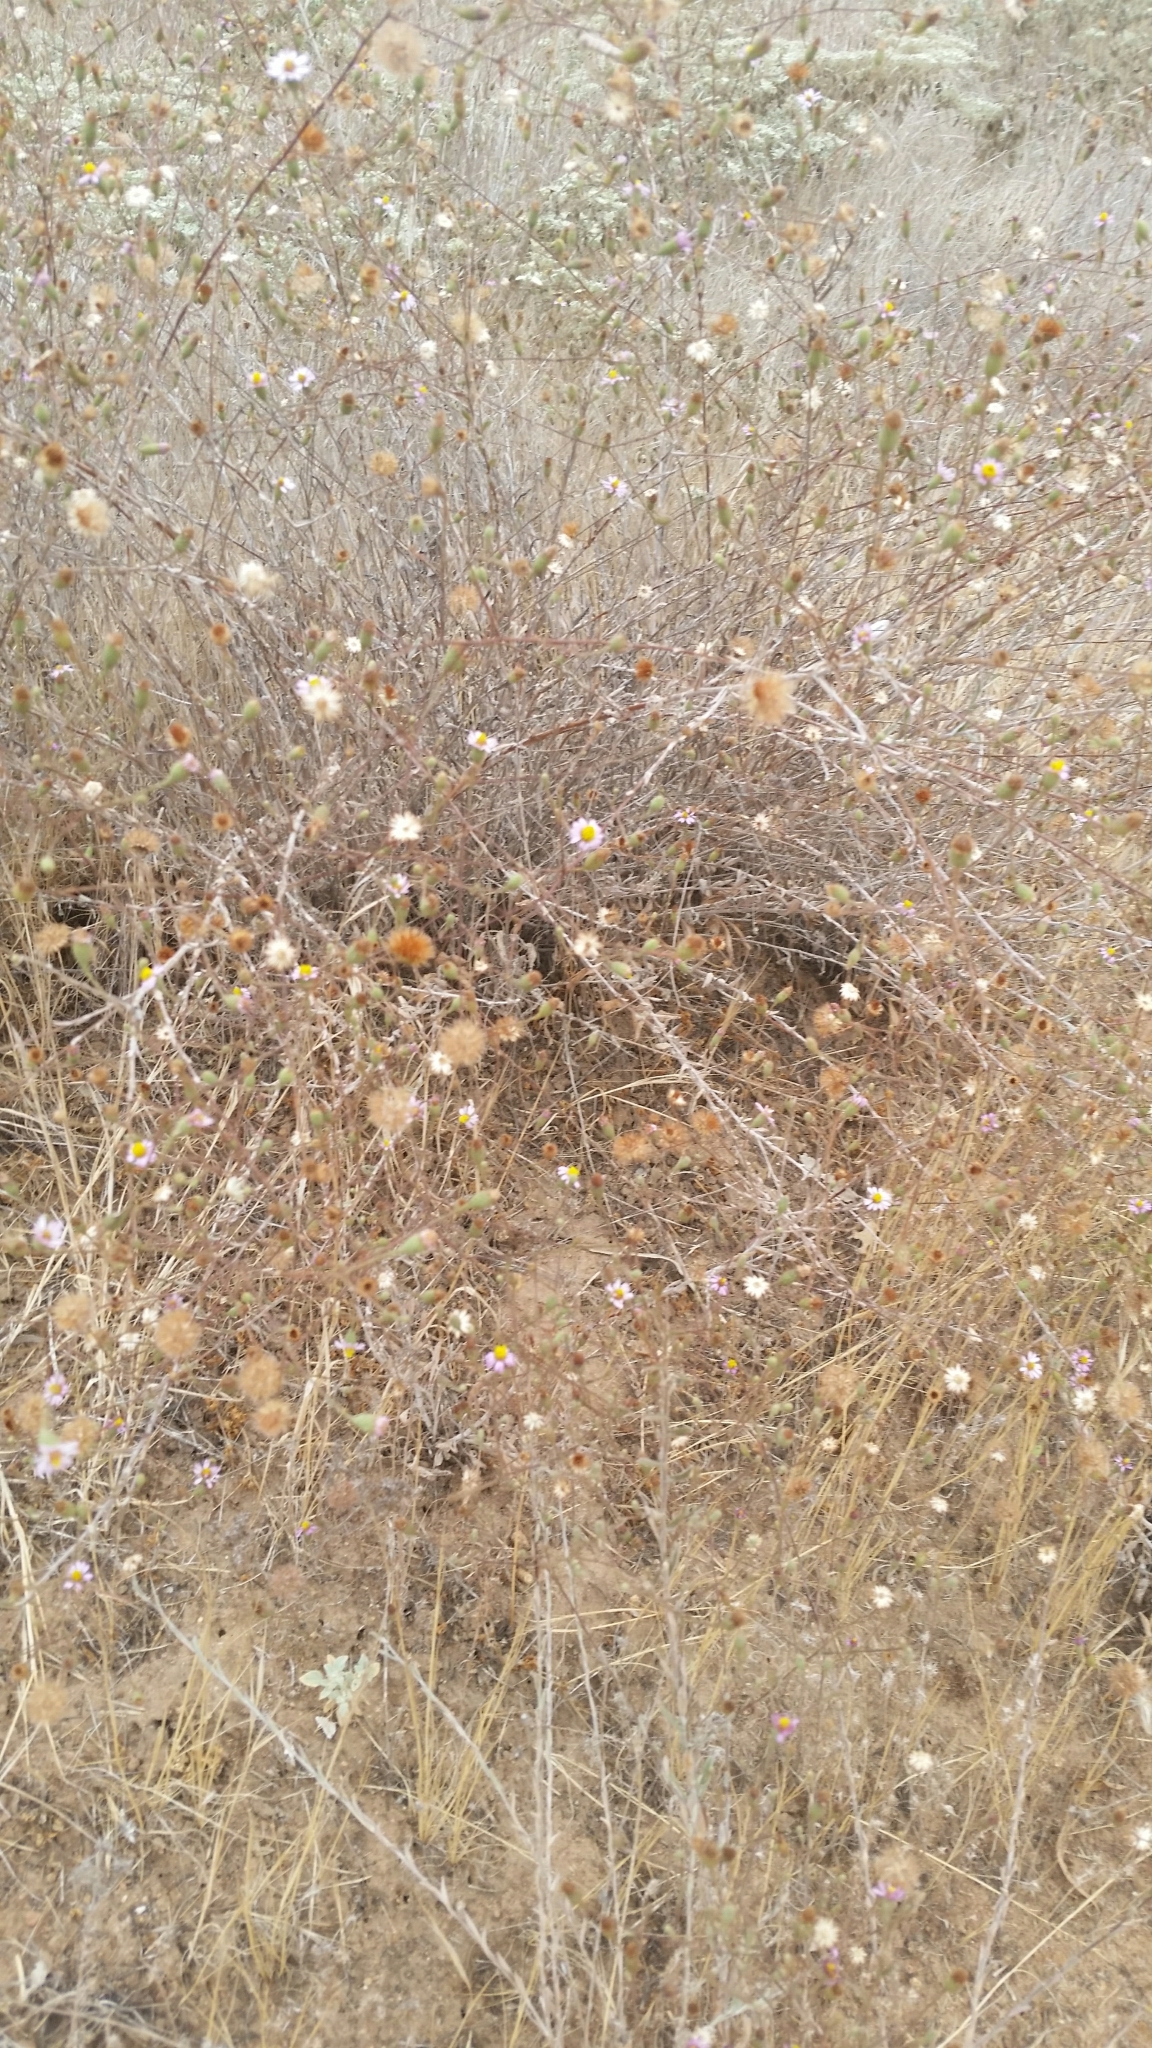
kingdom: Plantae
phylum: Tracheophyta
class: Magnoliopsida
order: Asterales
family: Asteraceae
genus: Corethrogyne
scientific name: Corethrogyne filaginifolia
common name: Sand-aster
